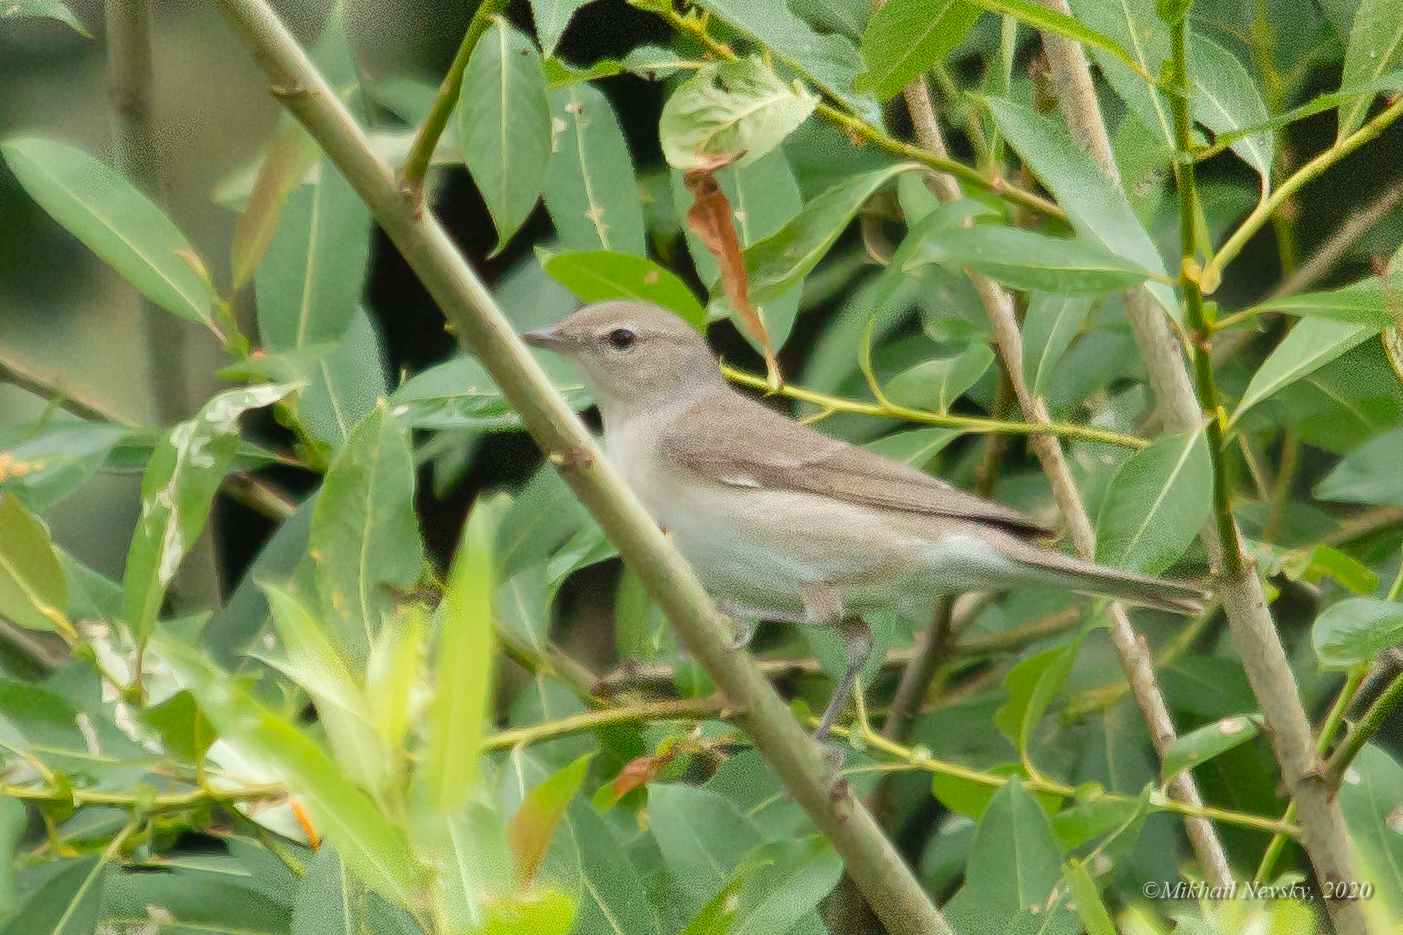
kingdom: Animalia
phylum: Chordata
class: Aves
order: Passeriformes
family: Sylviidae
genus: Sylvia
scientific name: Sylvia borin
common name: Garden warbler
